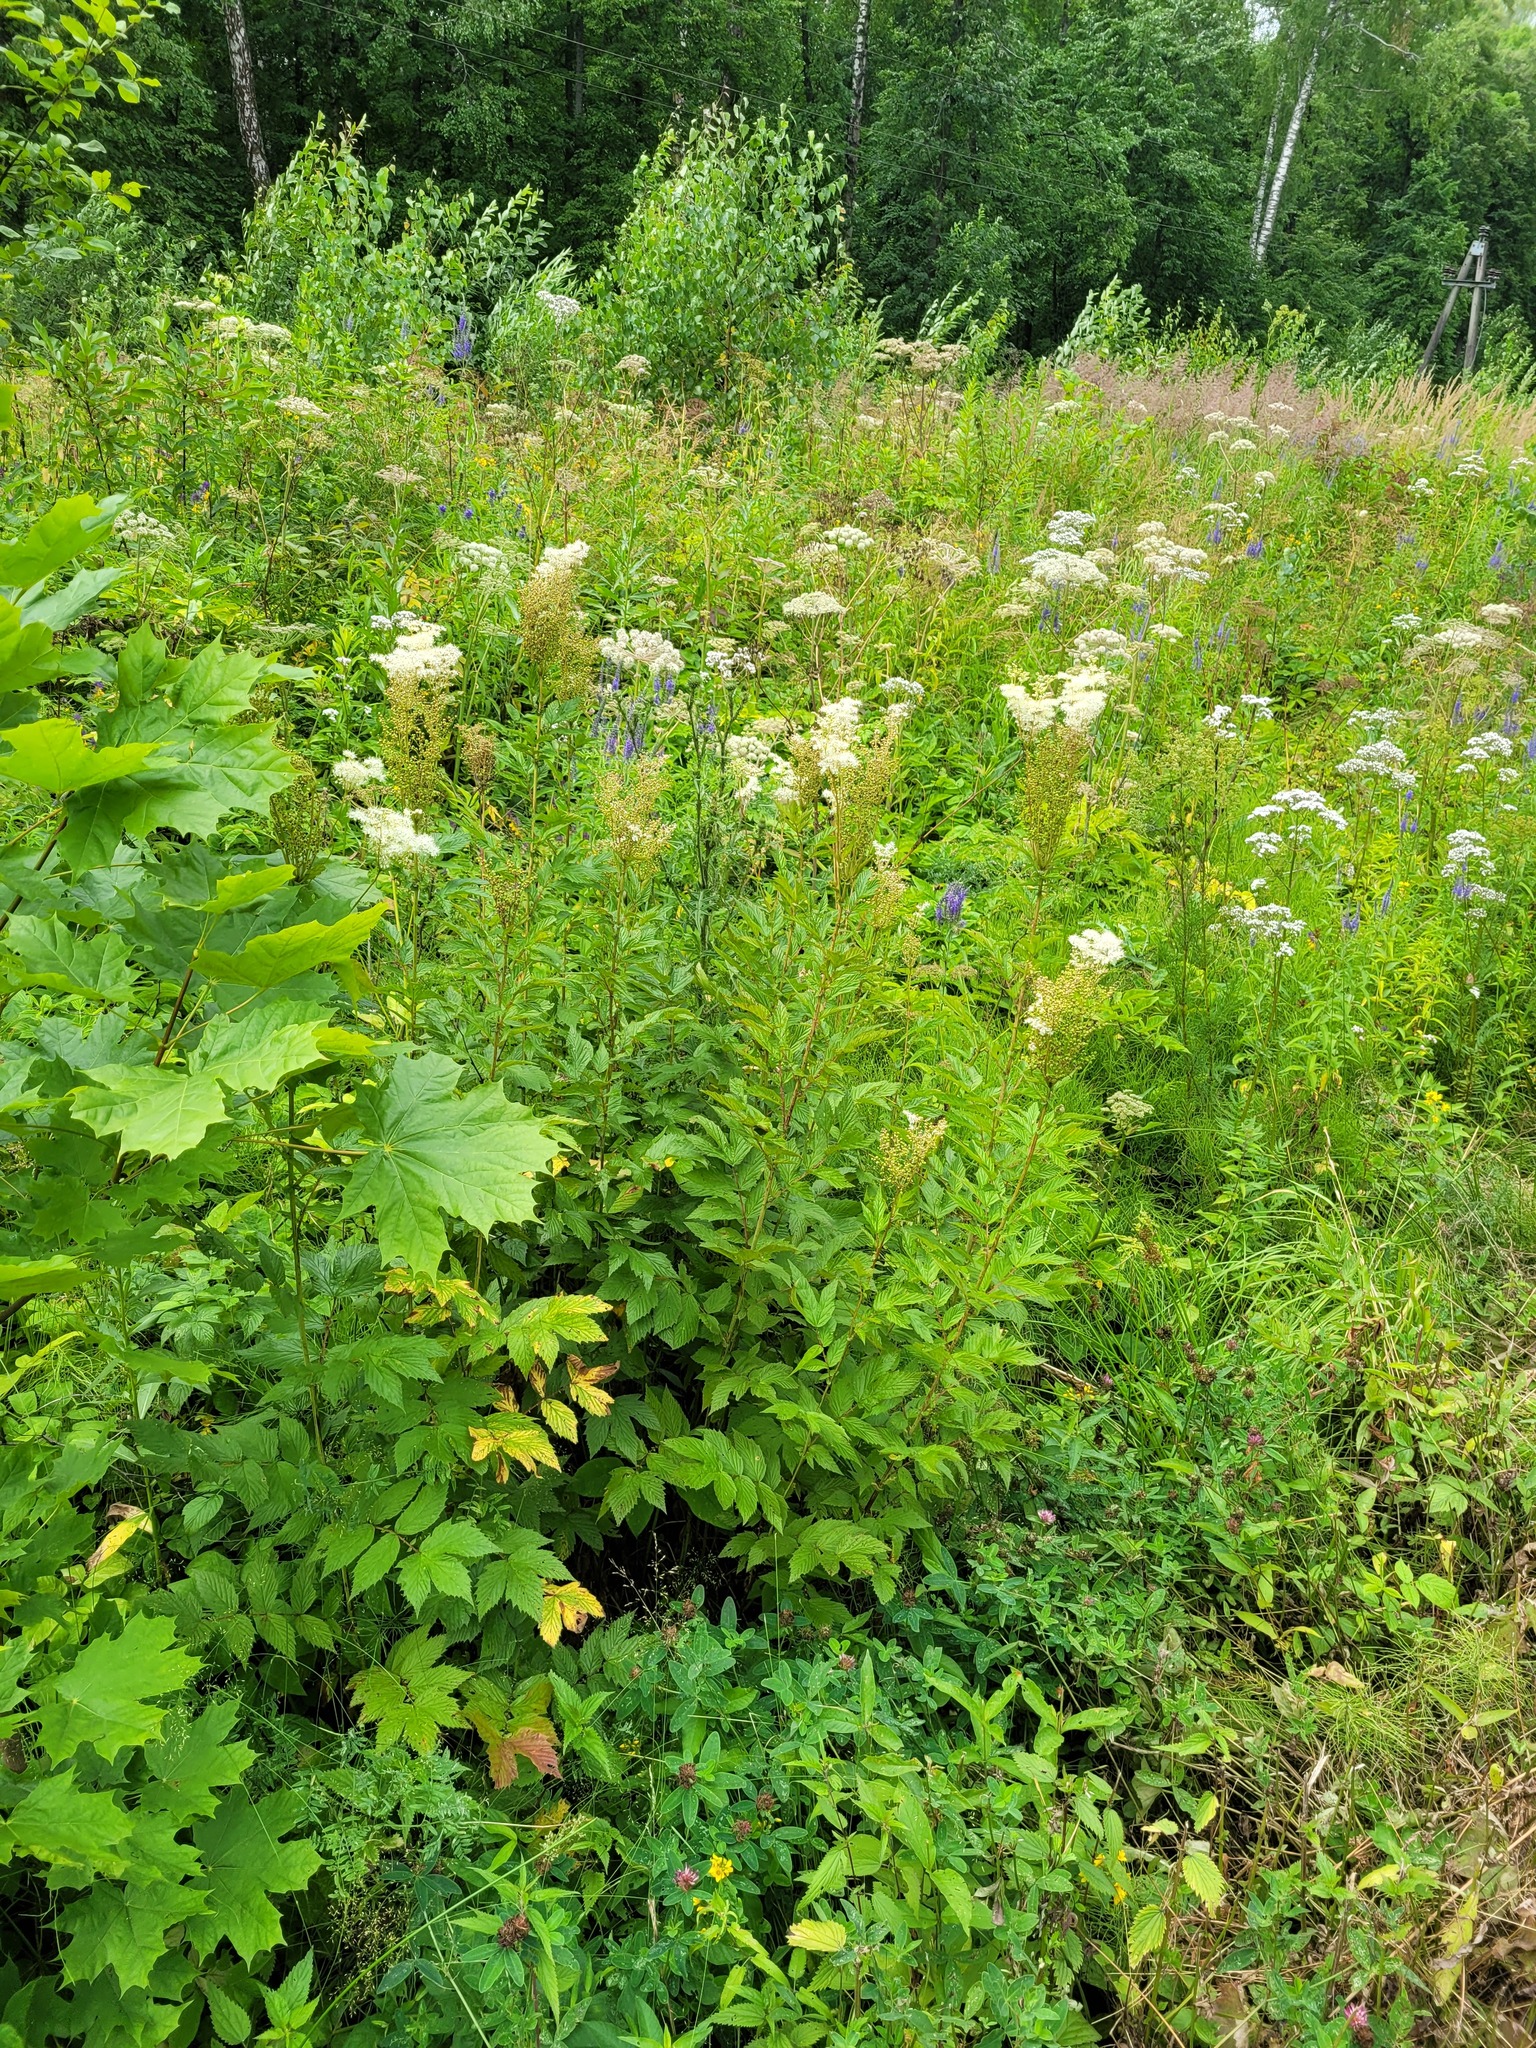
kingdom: Plantae
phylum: Tracheophyta
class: Magnoliopsida
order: Rosales
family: Rosaceae
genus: Filipendula
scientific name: Filipendula ulmaria
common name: Meadowsweet
